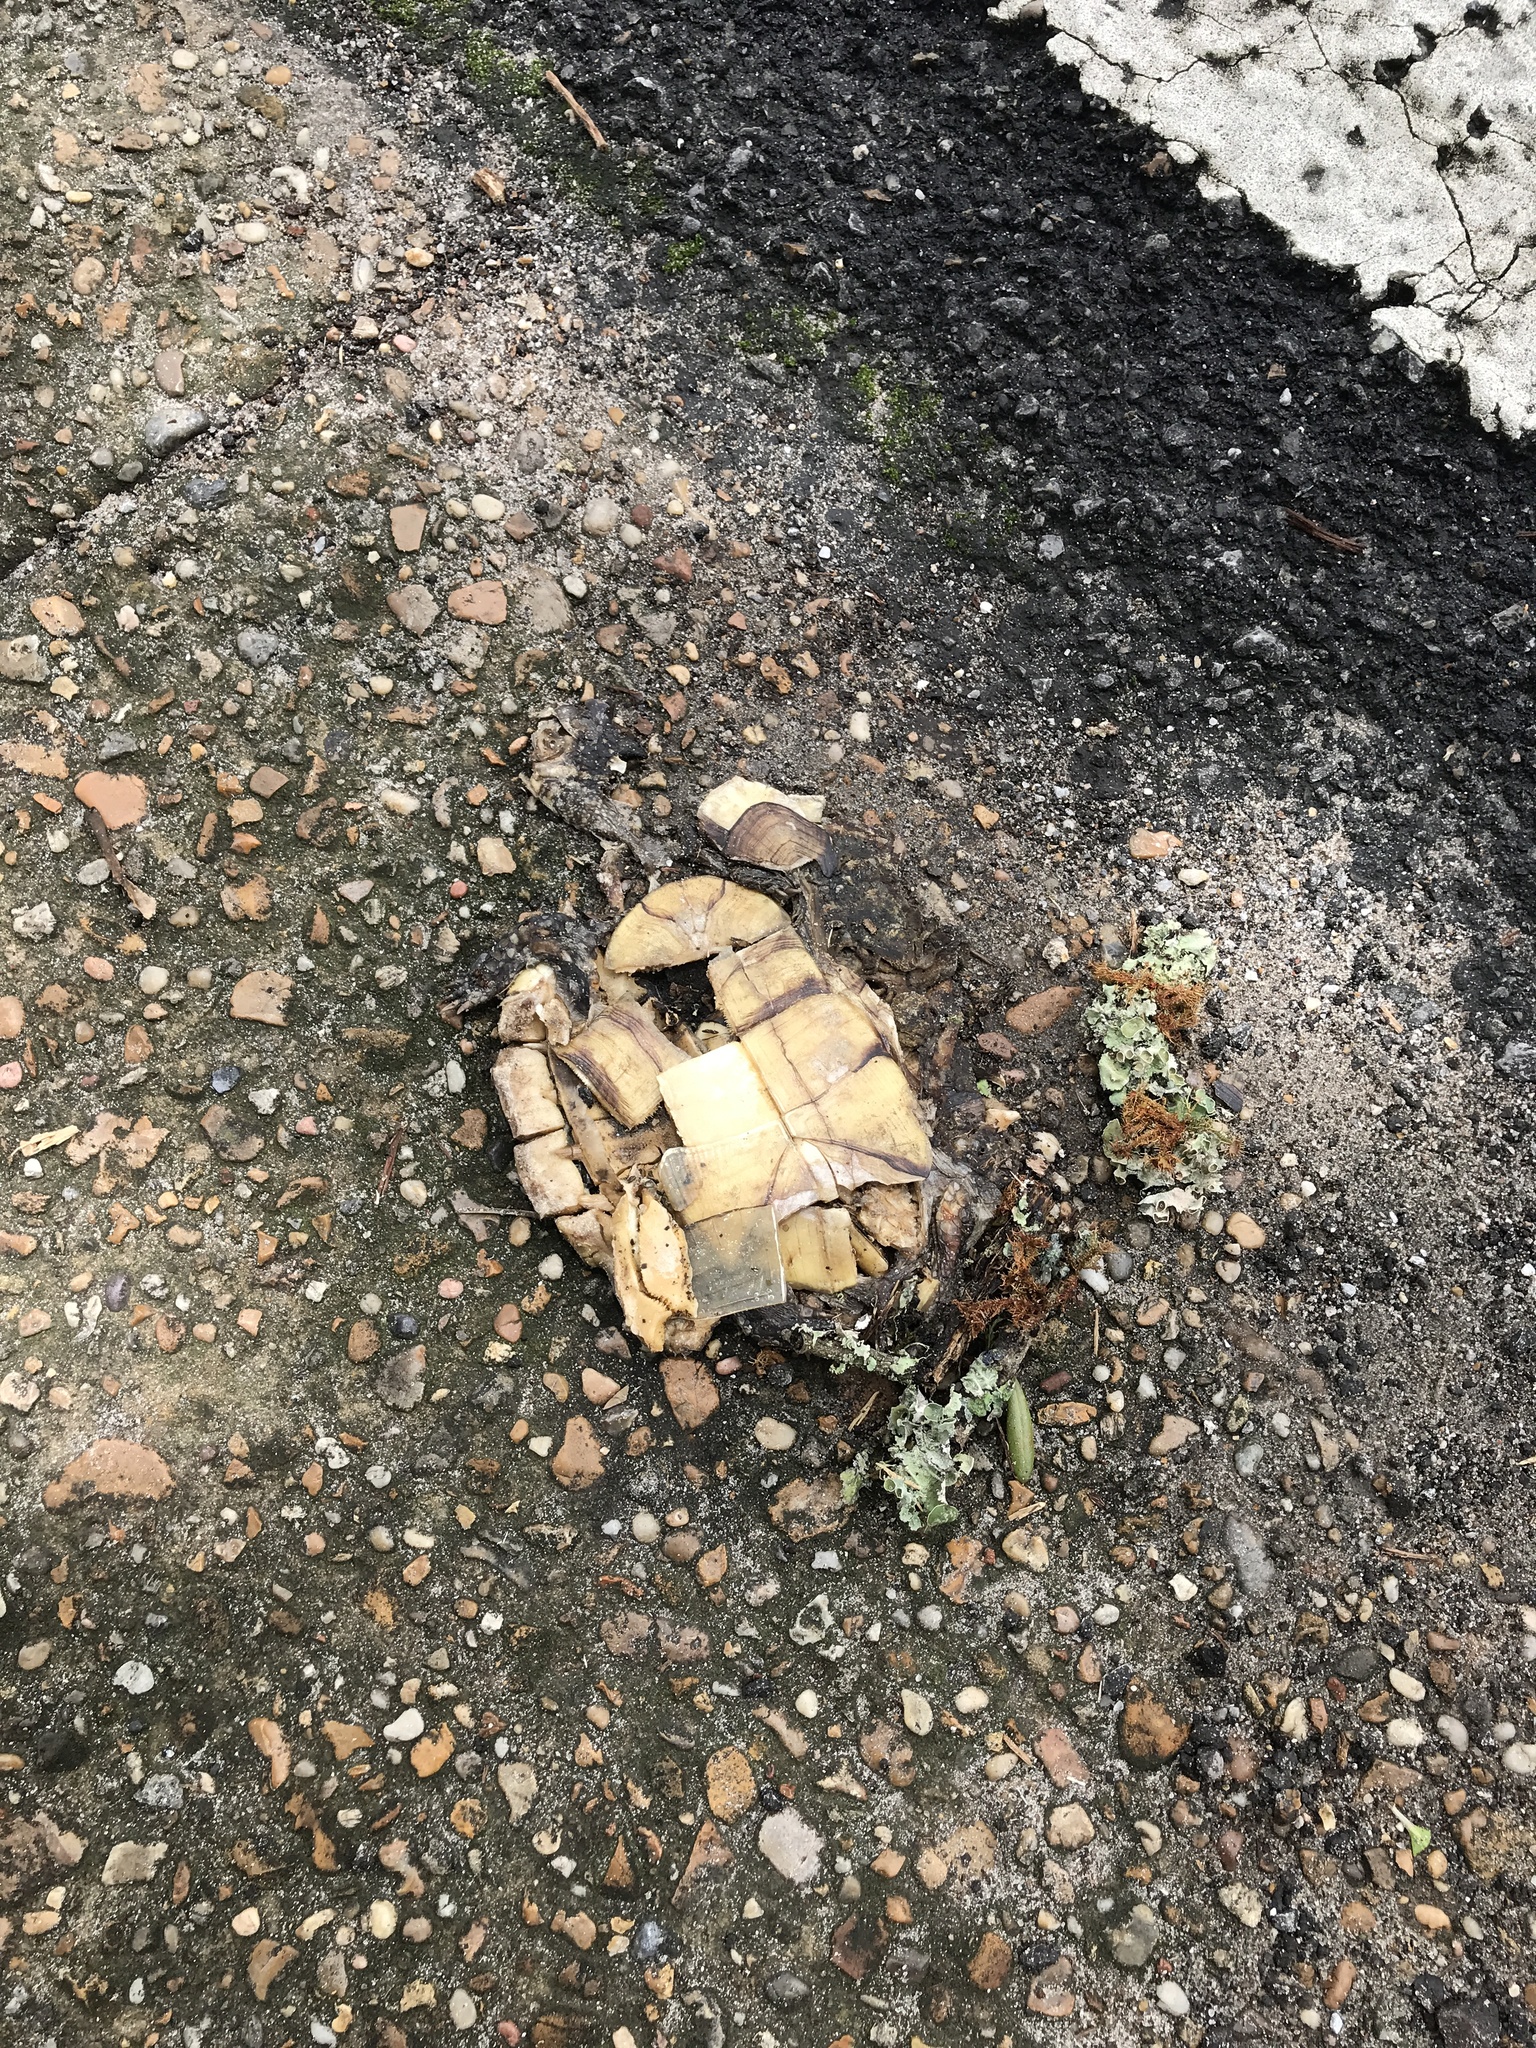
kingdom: Animalia
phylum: Chordata
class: Testudines
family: Emydidae
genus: Terrapene
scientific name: Terrapene carolina
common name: Common box turtle
